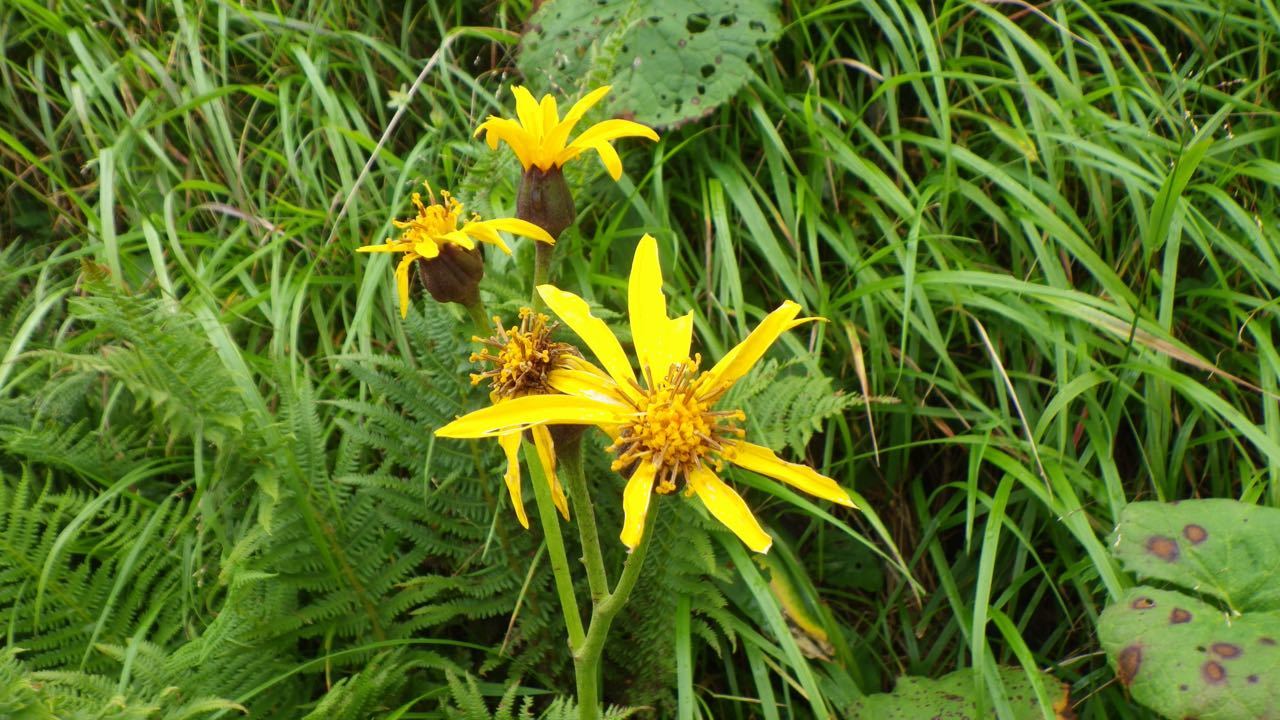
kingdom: Plantae
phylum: Tracheophyta
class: Magnoliopsida
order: Asterales
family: Asteraceae
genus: Ligularia
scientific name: Ligularia dentata
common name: Leopardplant
